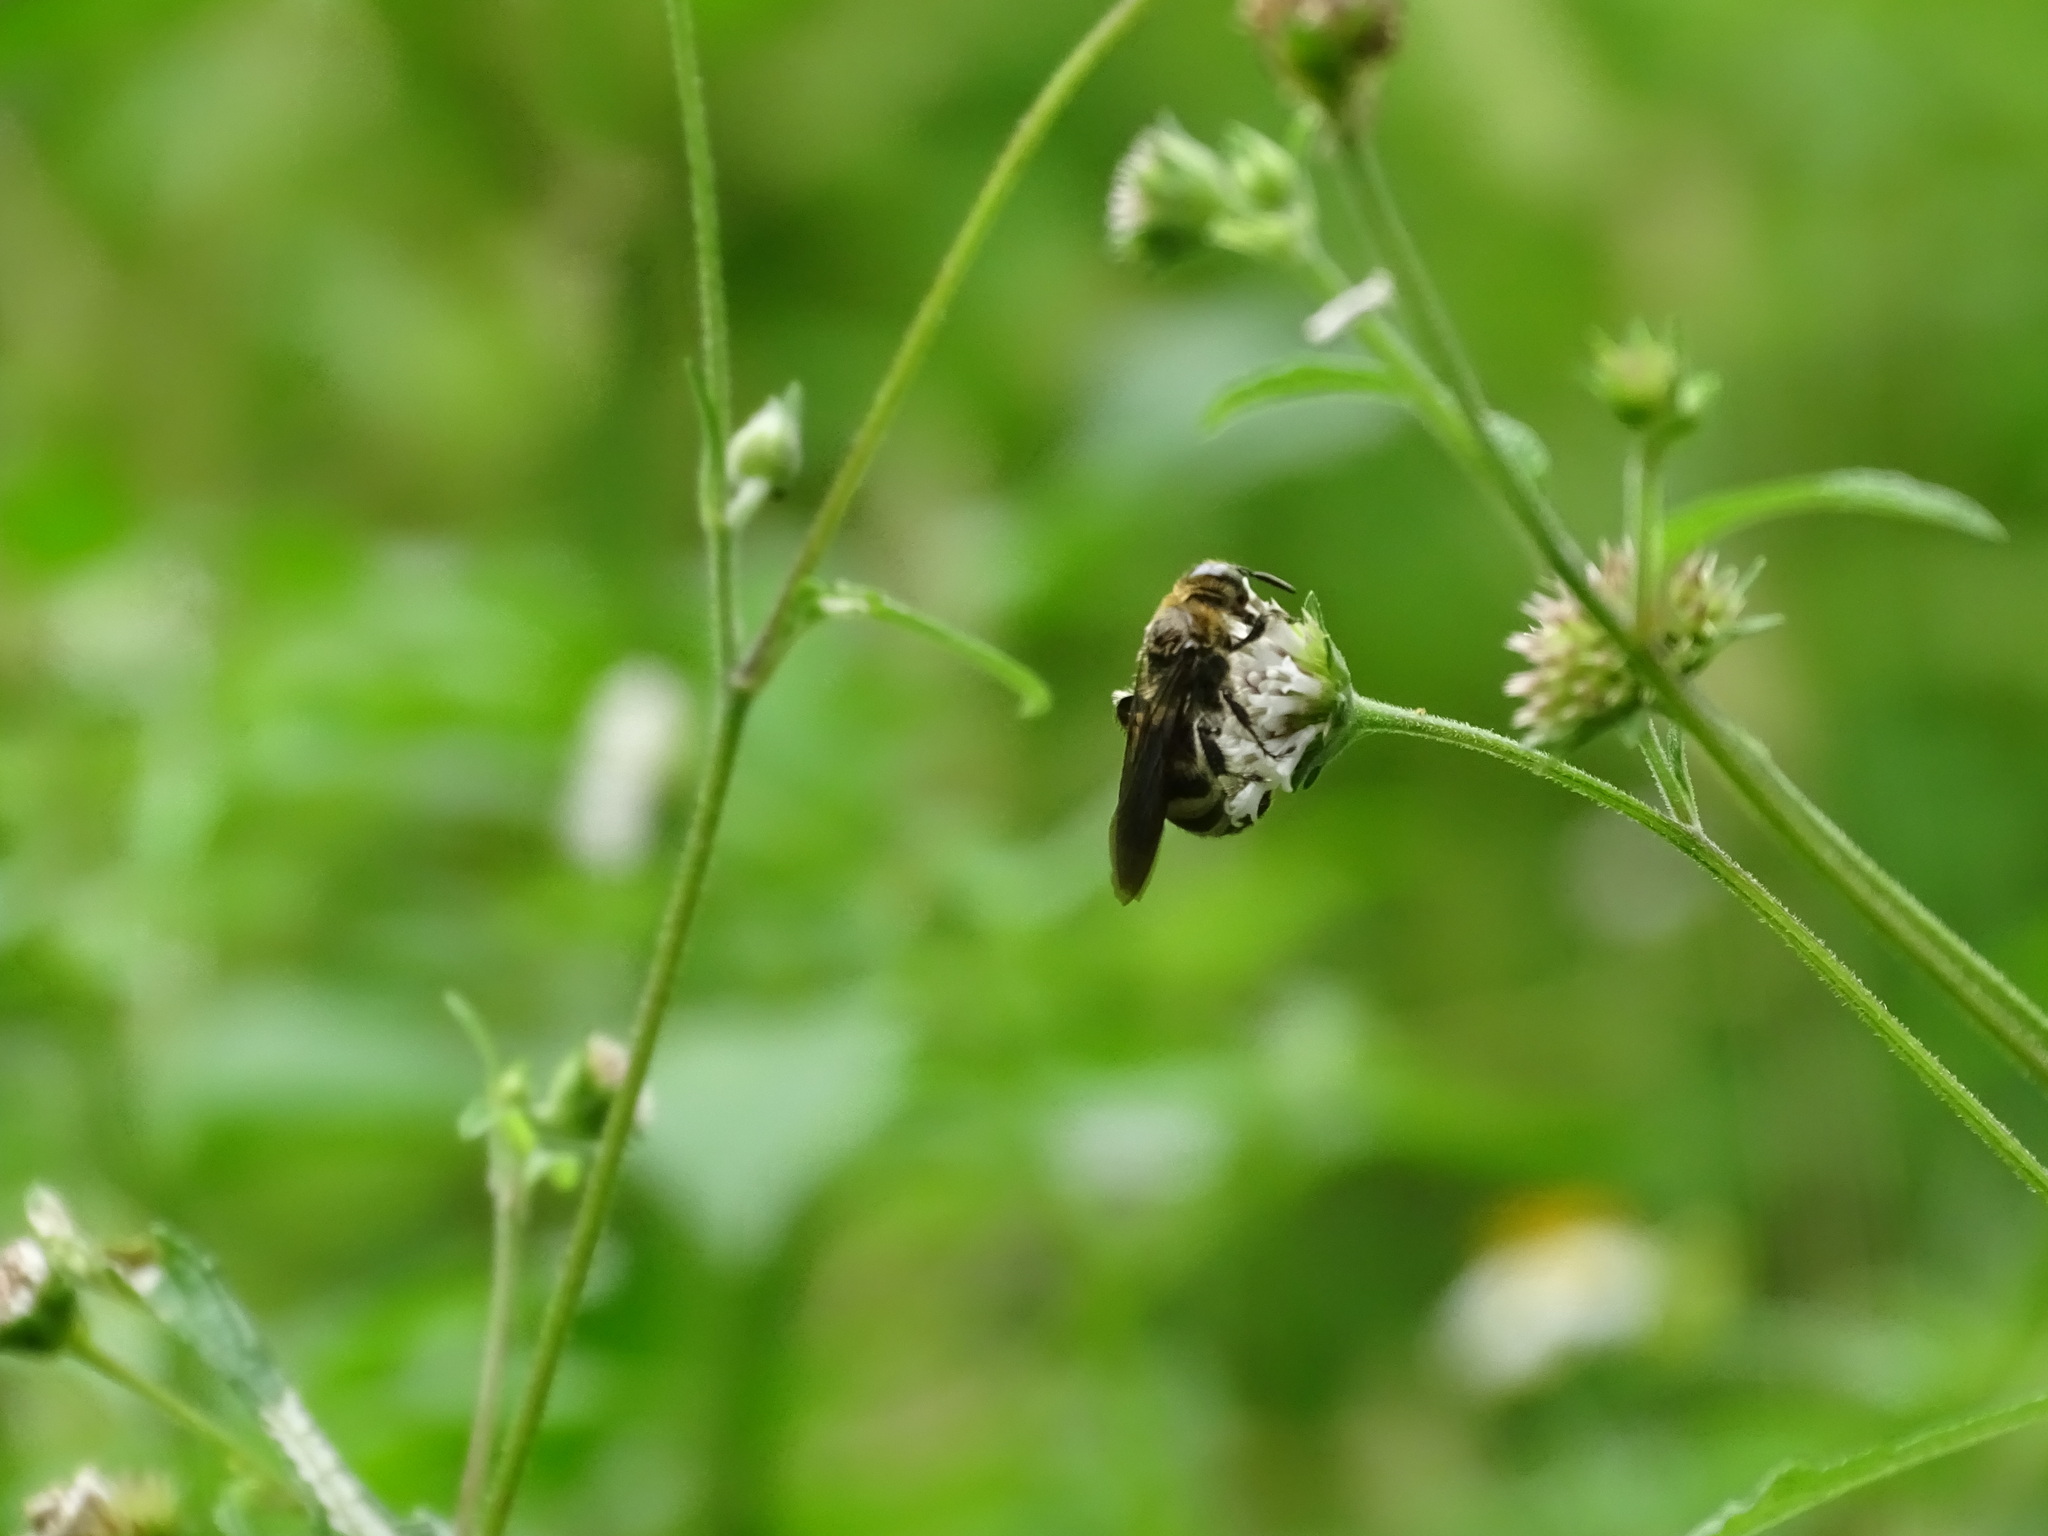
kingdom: Animalia
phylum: Arthropoda
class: Insecta
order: Hymenoptera
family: Scoliidae
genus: Dielis
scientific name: Dielis
